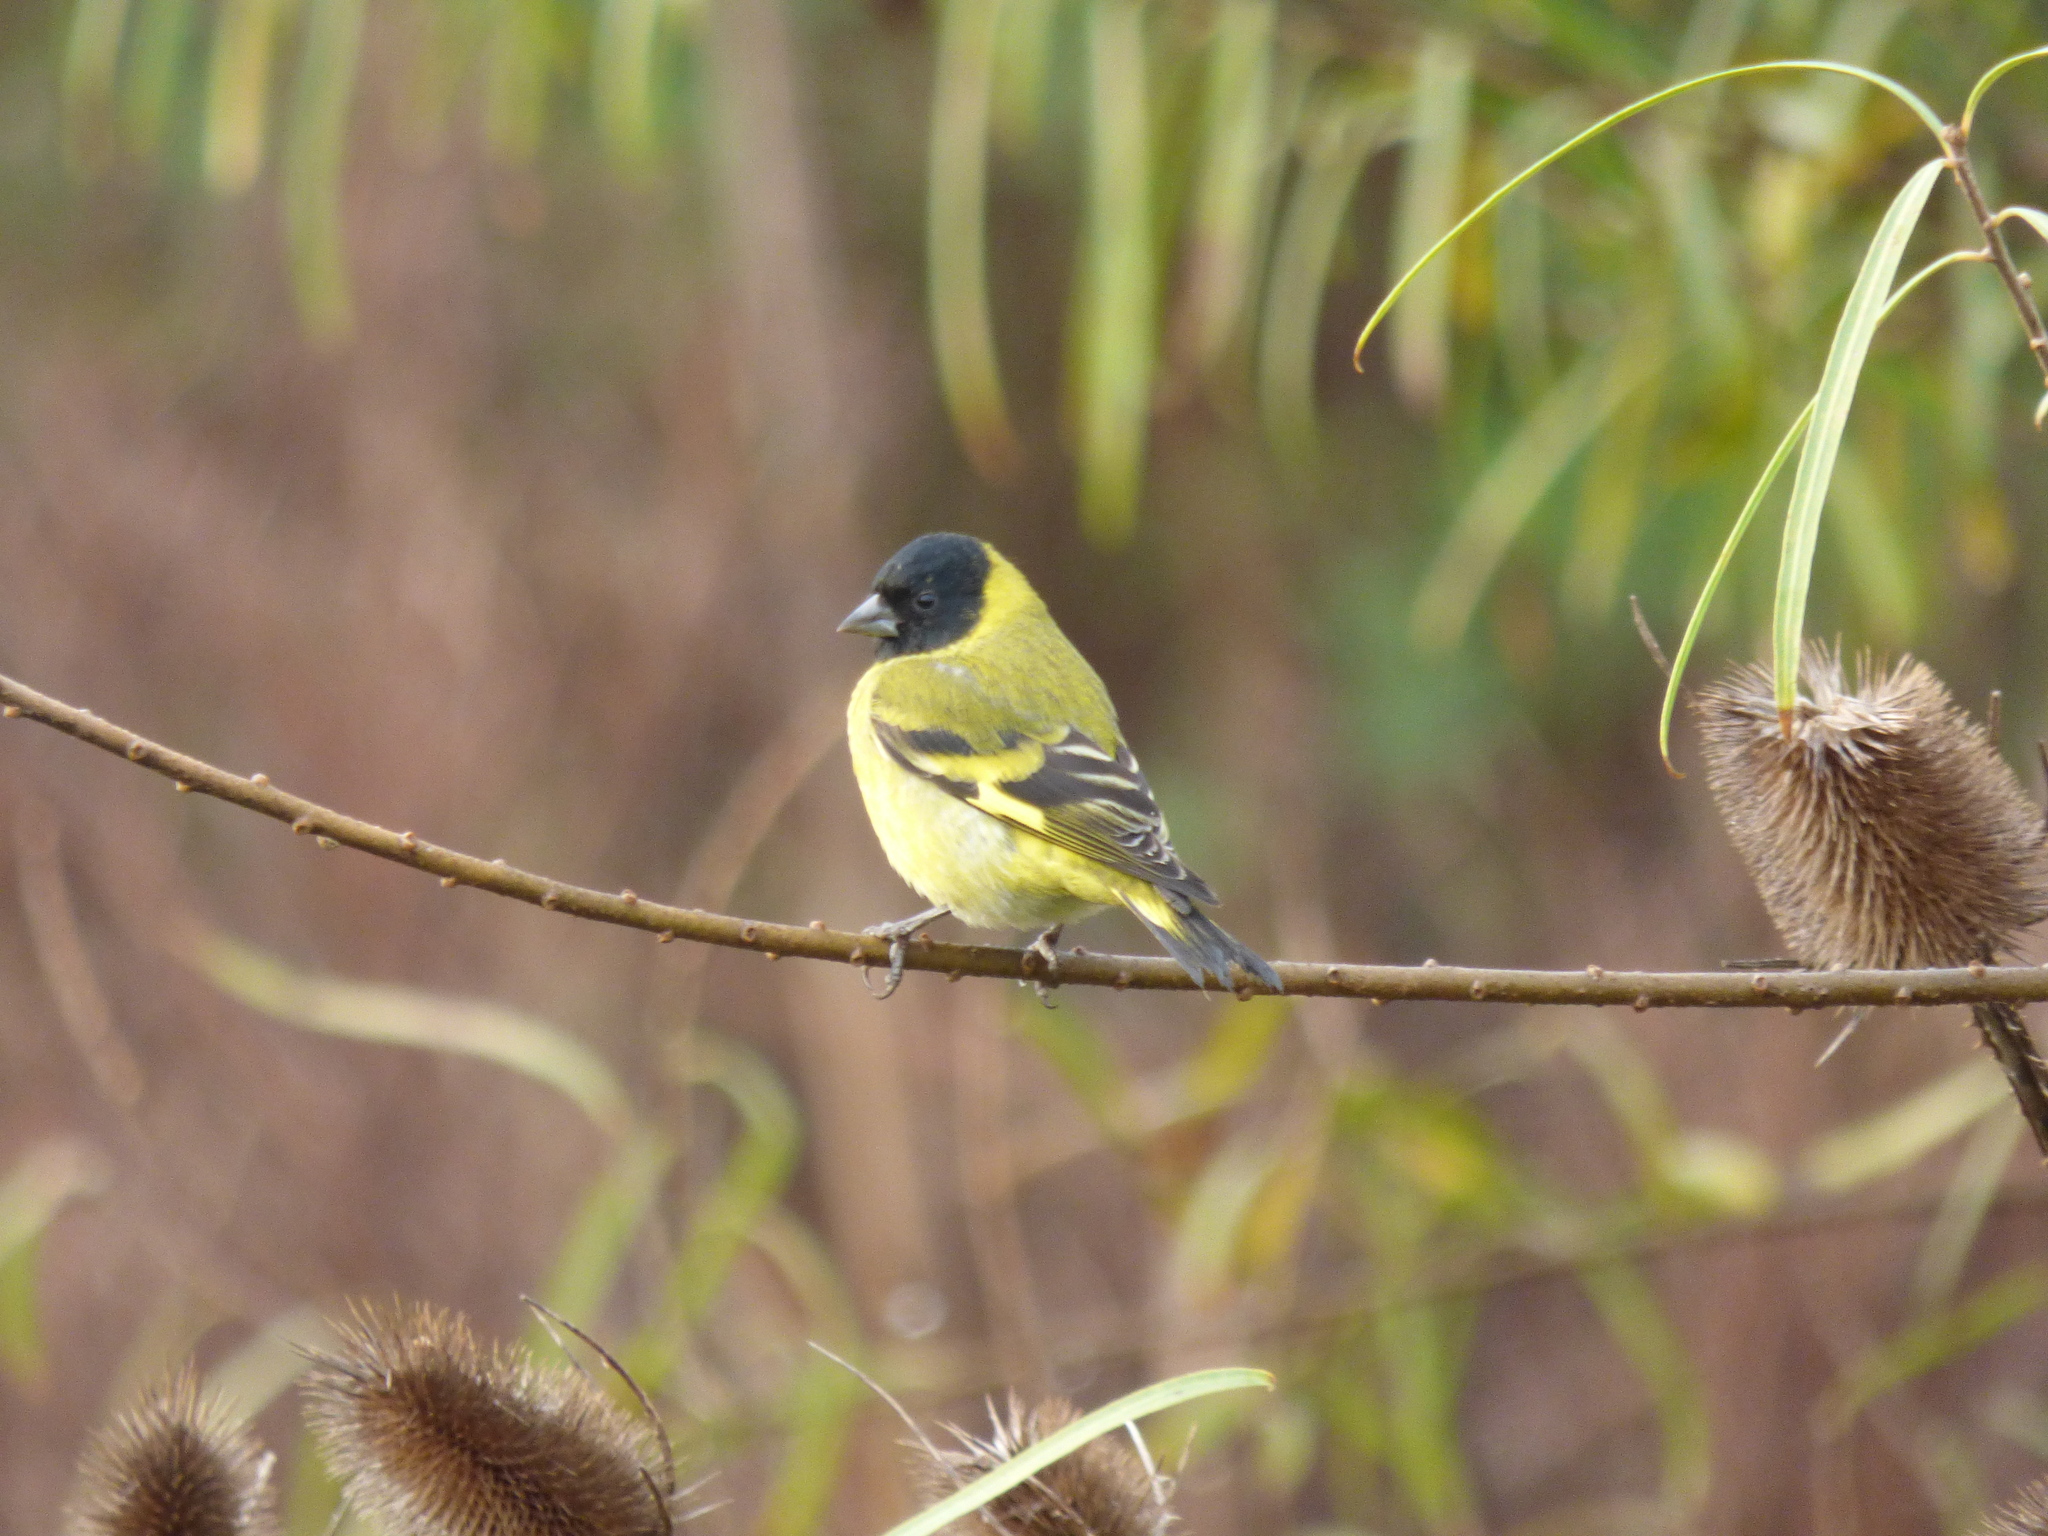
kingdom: Animalia
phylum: Chordata
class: Aves
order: Passeriformes
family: Fringillidae
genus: Spinus
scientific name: Spinus magellanicus
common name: Hooded siskin
